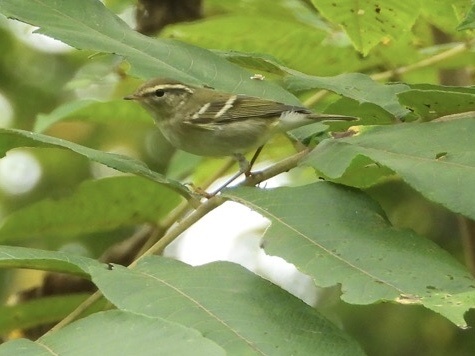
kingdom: Animalia
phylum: Chordata
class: Aves
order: Passeriformes
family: Phylloscopidae
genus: Phylloscopus
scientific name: Phylloscopus inornatus
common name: Yellow-browed warbler
